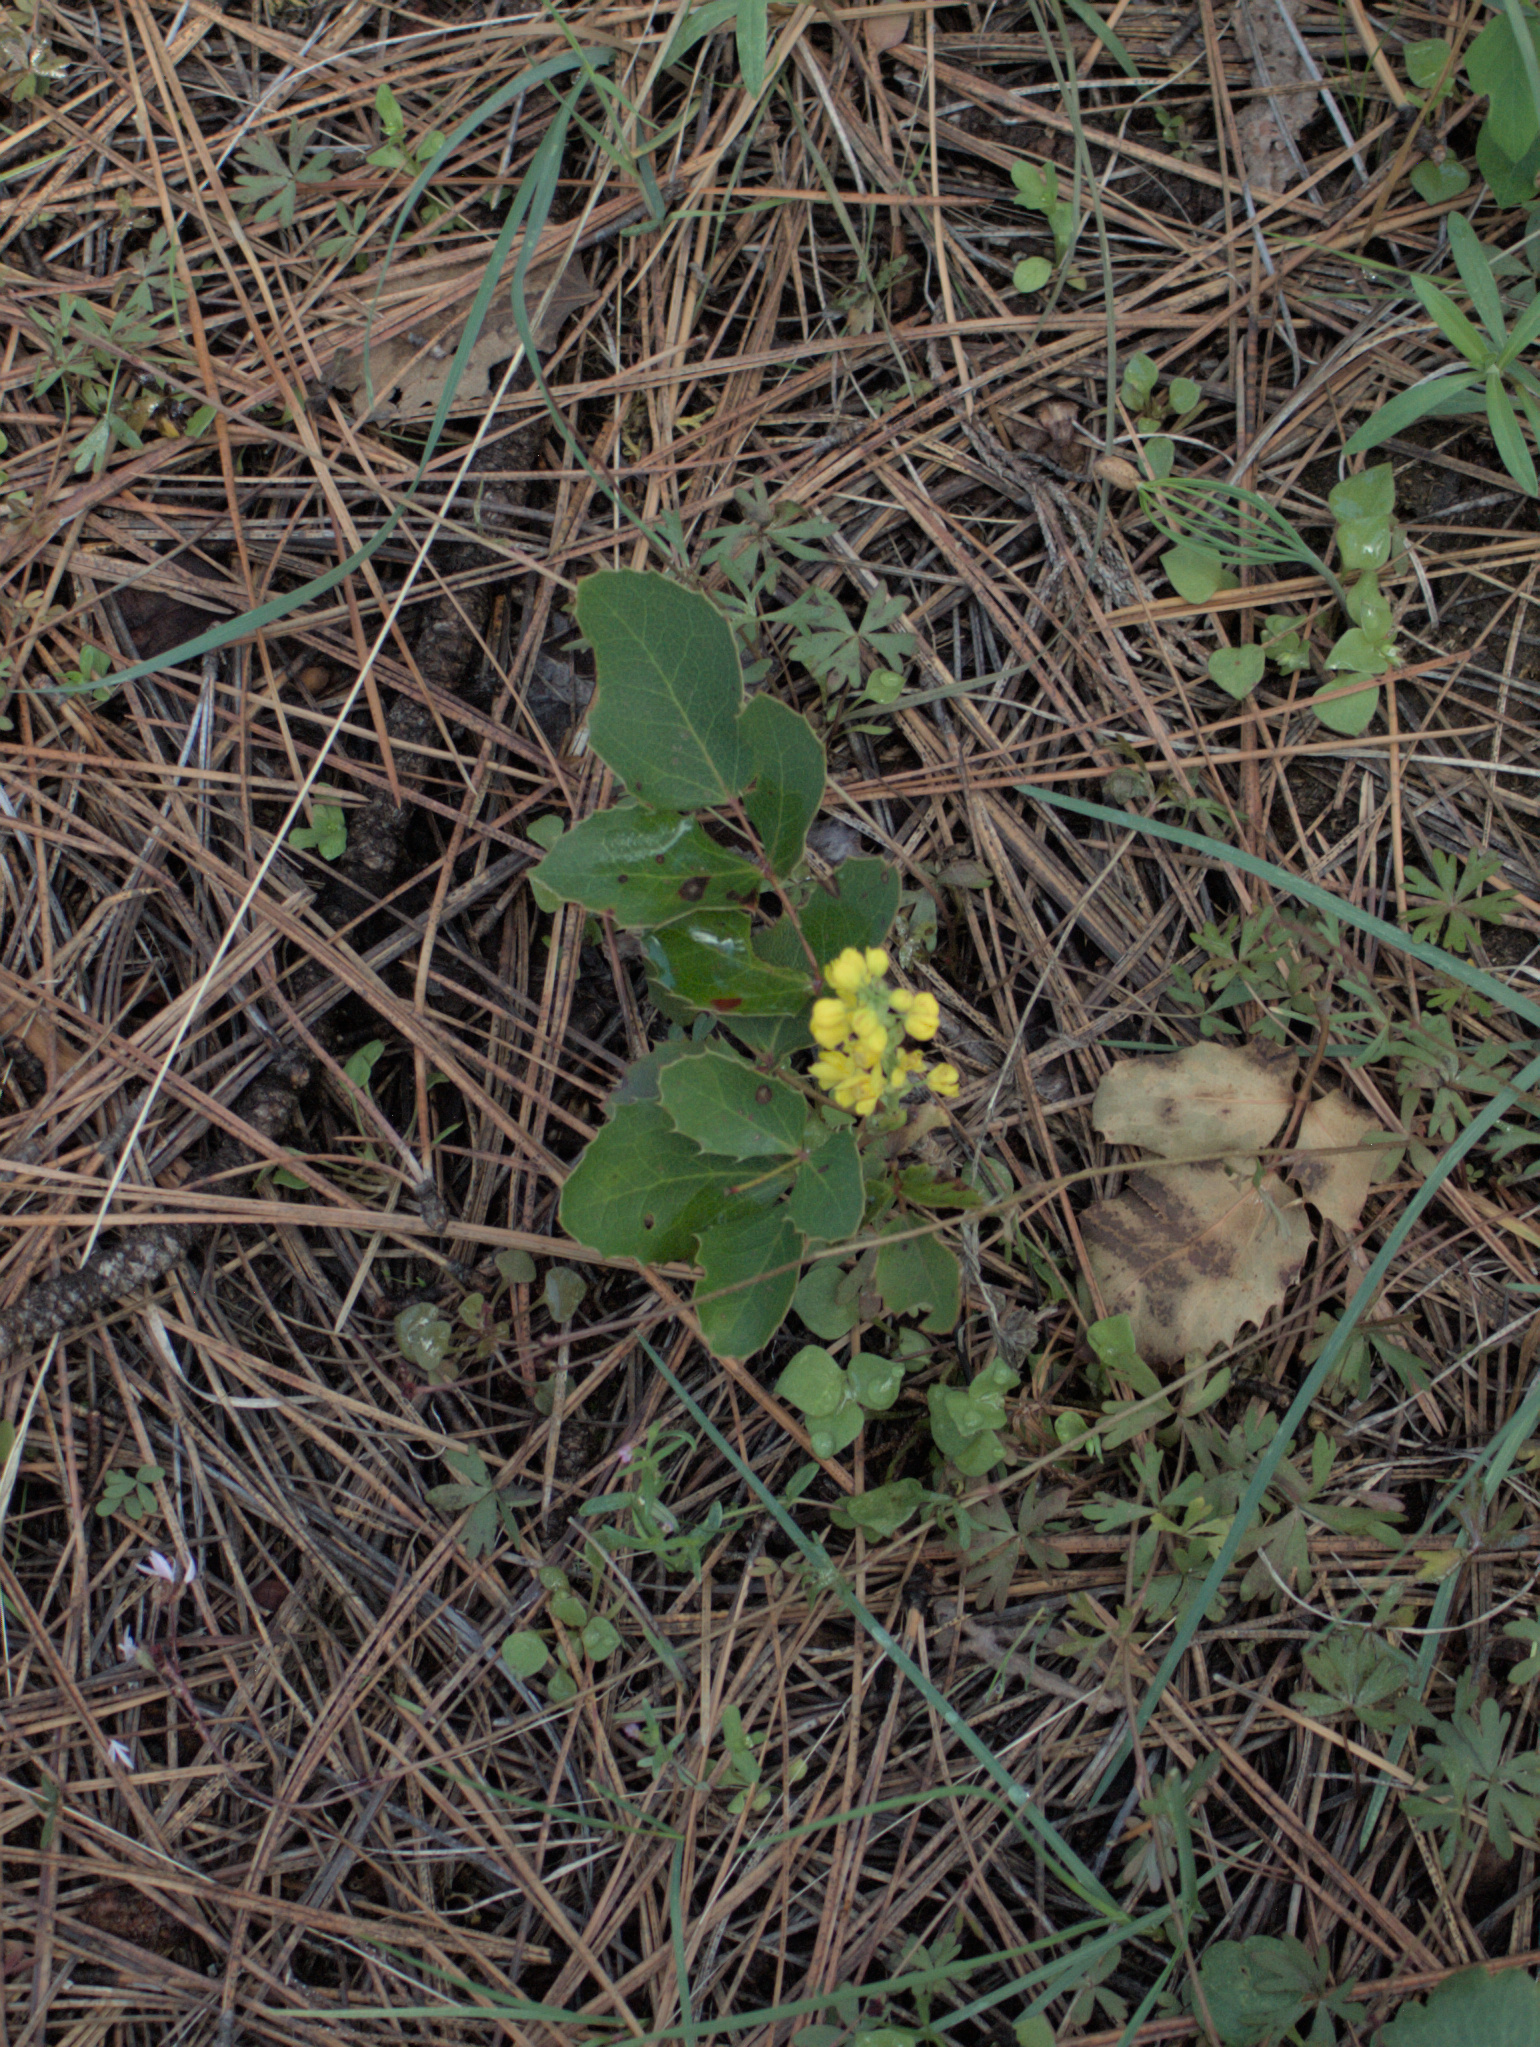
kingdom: Plantae
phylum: Tracheophyta
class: Magnoliopsida
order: Ranunculales
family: Berberidaceae
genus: Mahonia
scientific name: Mahonia repens
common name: Creeping oregon-grape
